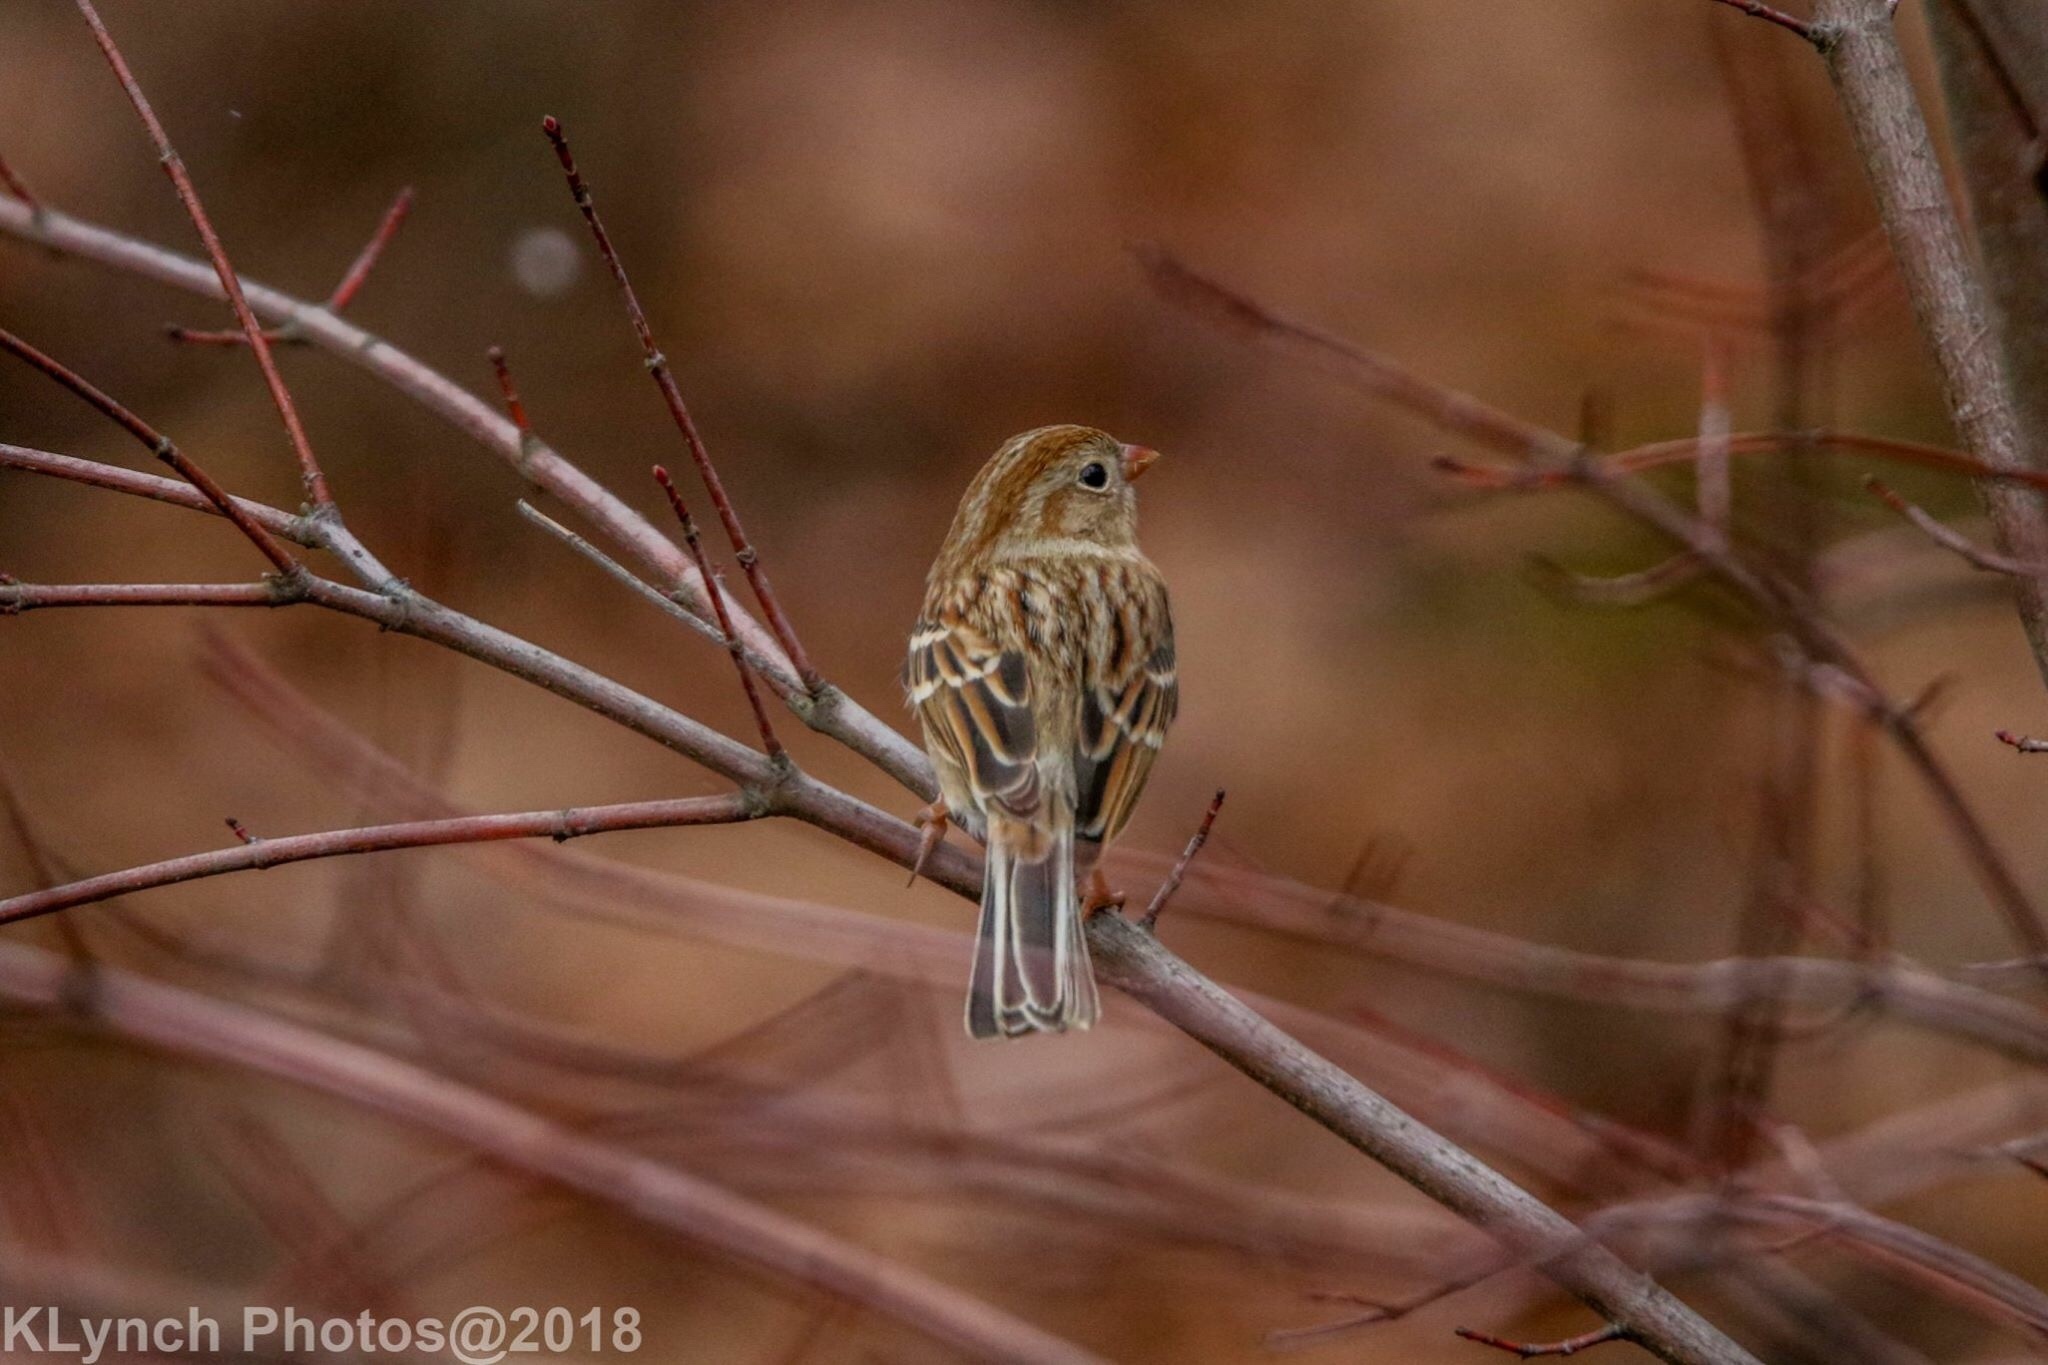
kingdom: Animalia
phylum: Chordata
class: Aves
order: Passeriformes
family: Passerellidae
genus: Spizella
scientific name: Spizella pusilla
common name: Field sparrow
